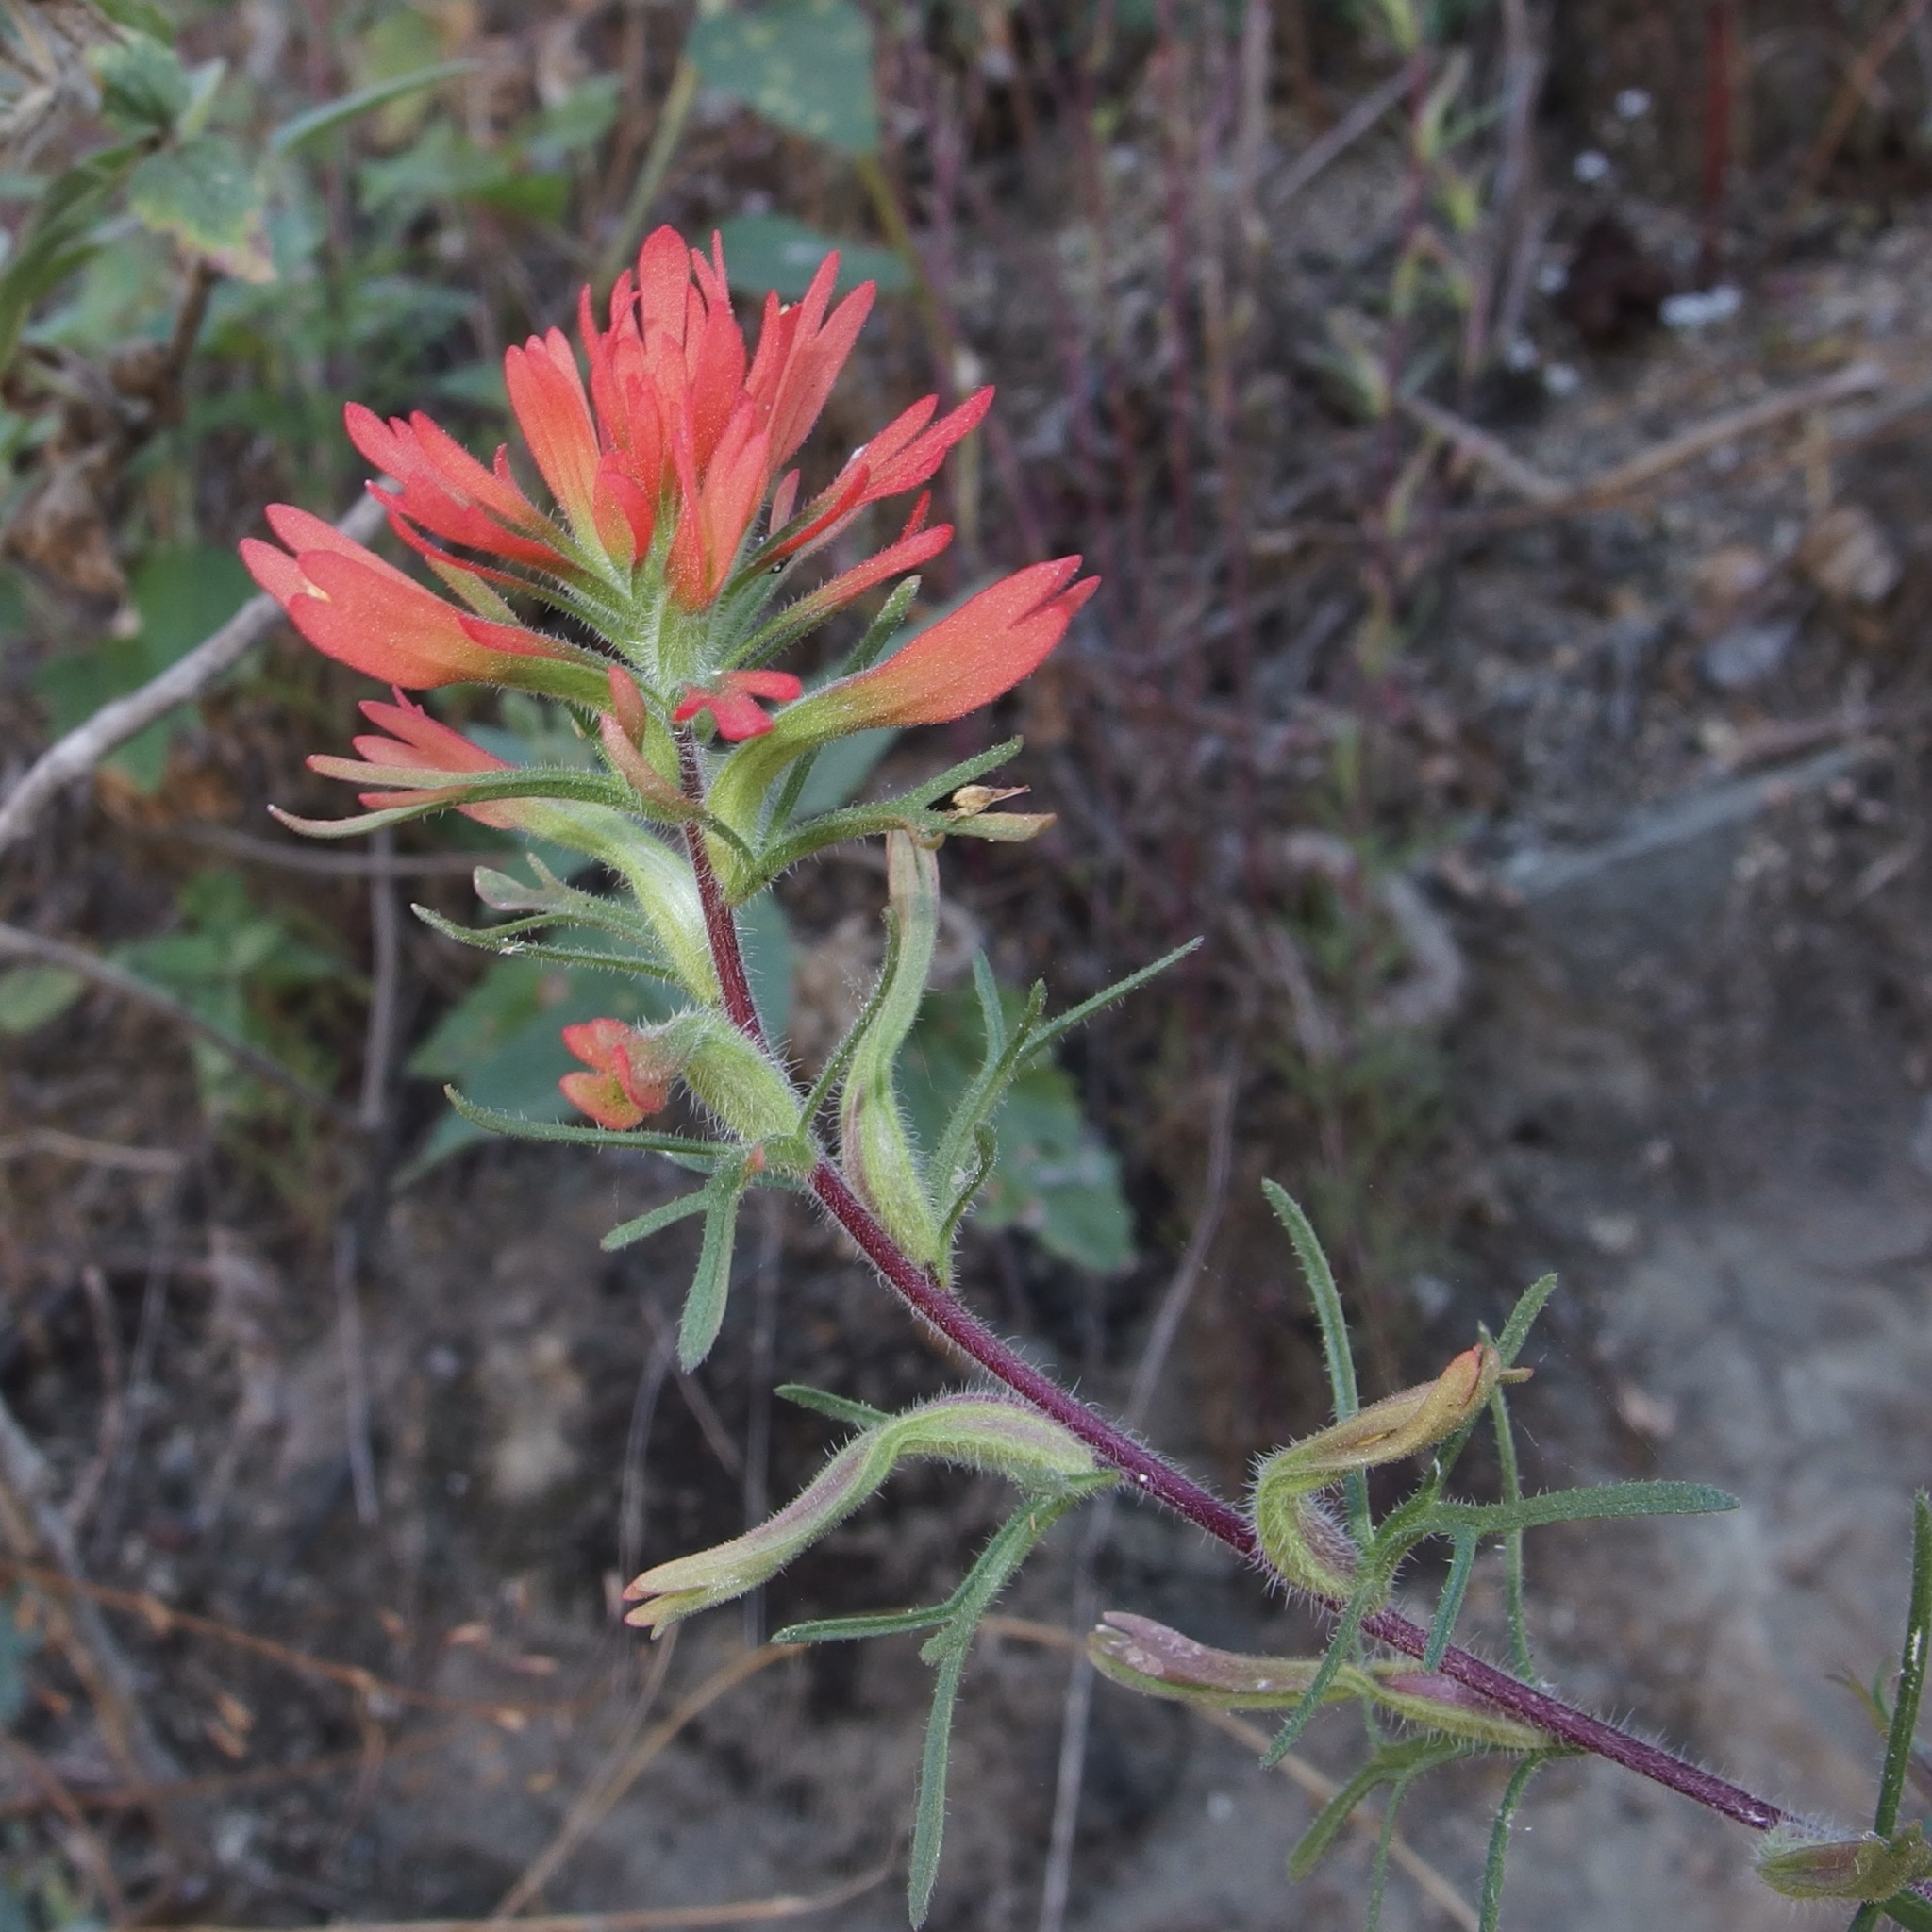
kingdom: Plantae
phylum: Tracheophyta
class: Magnoliopsida
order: Lamiales
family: Orobanchaceae
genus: Castilleja
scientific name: Castilleja bryantii
